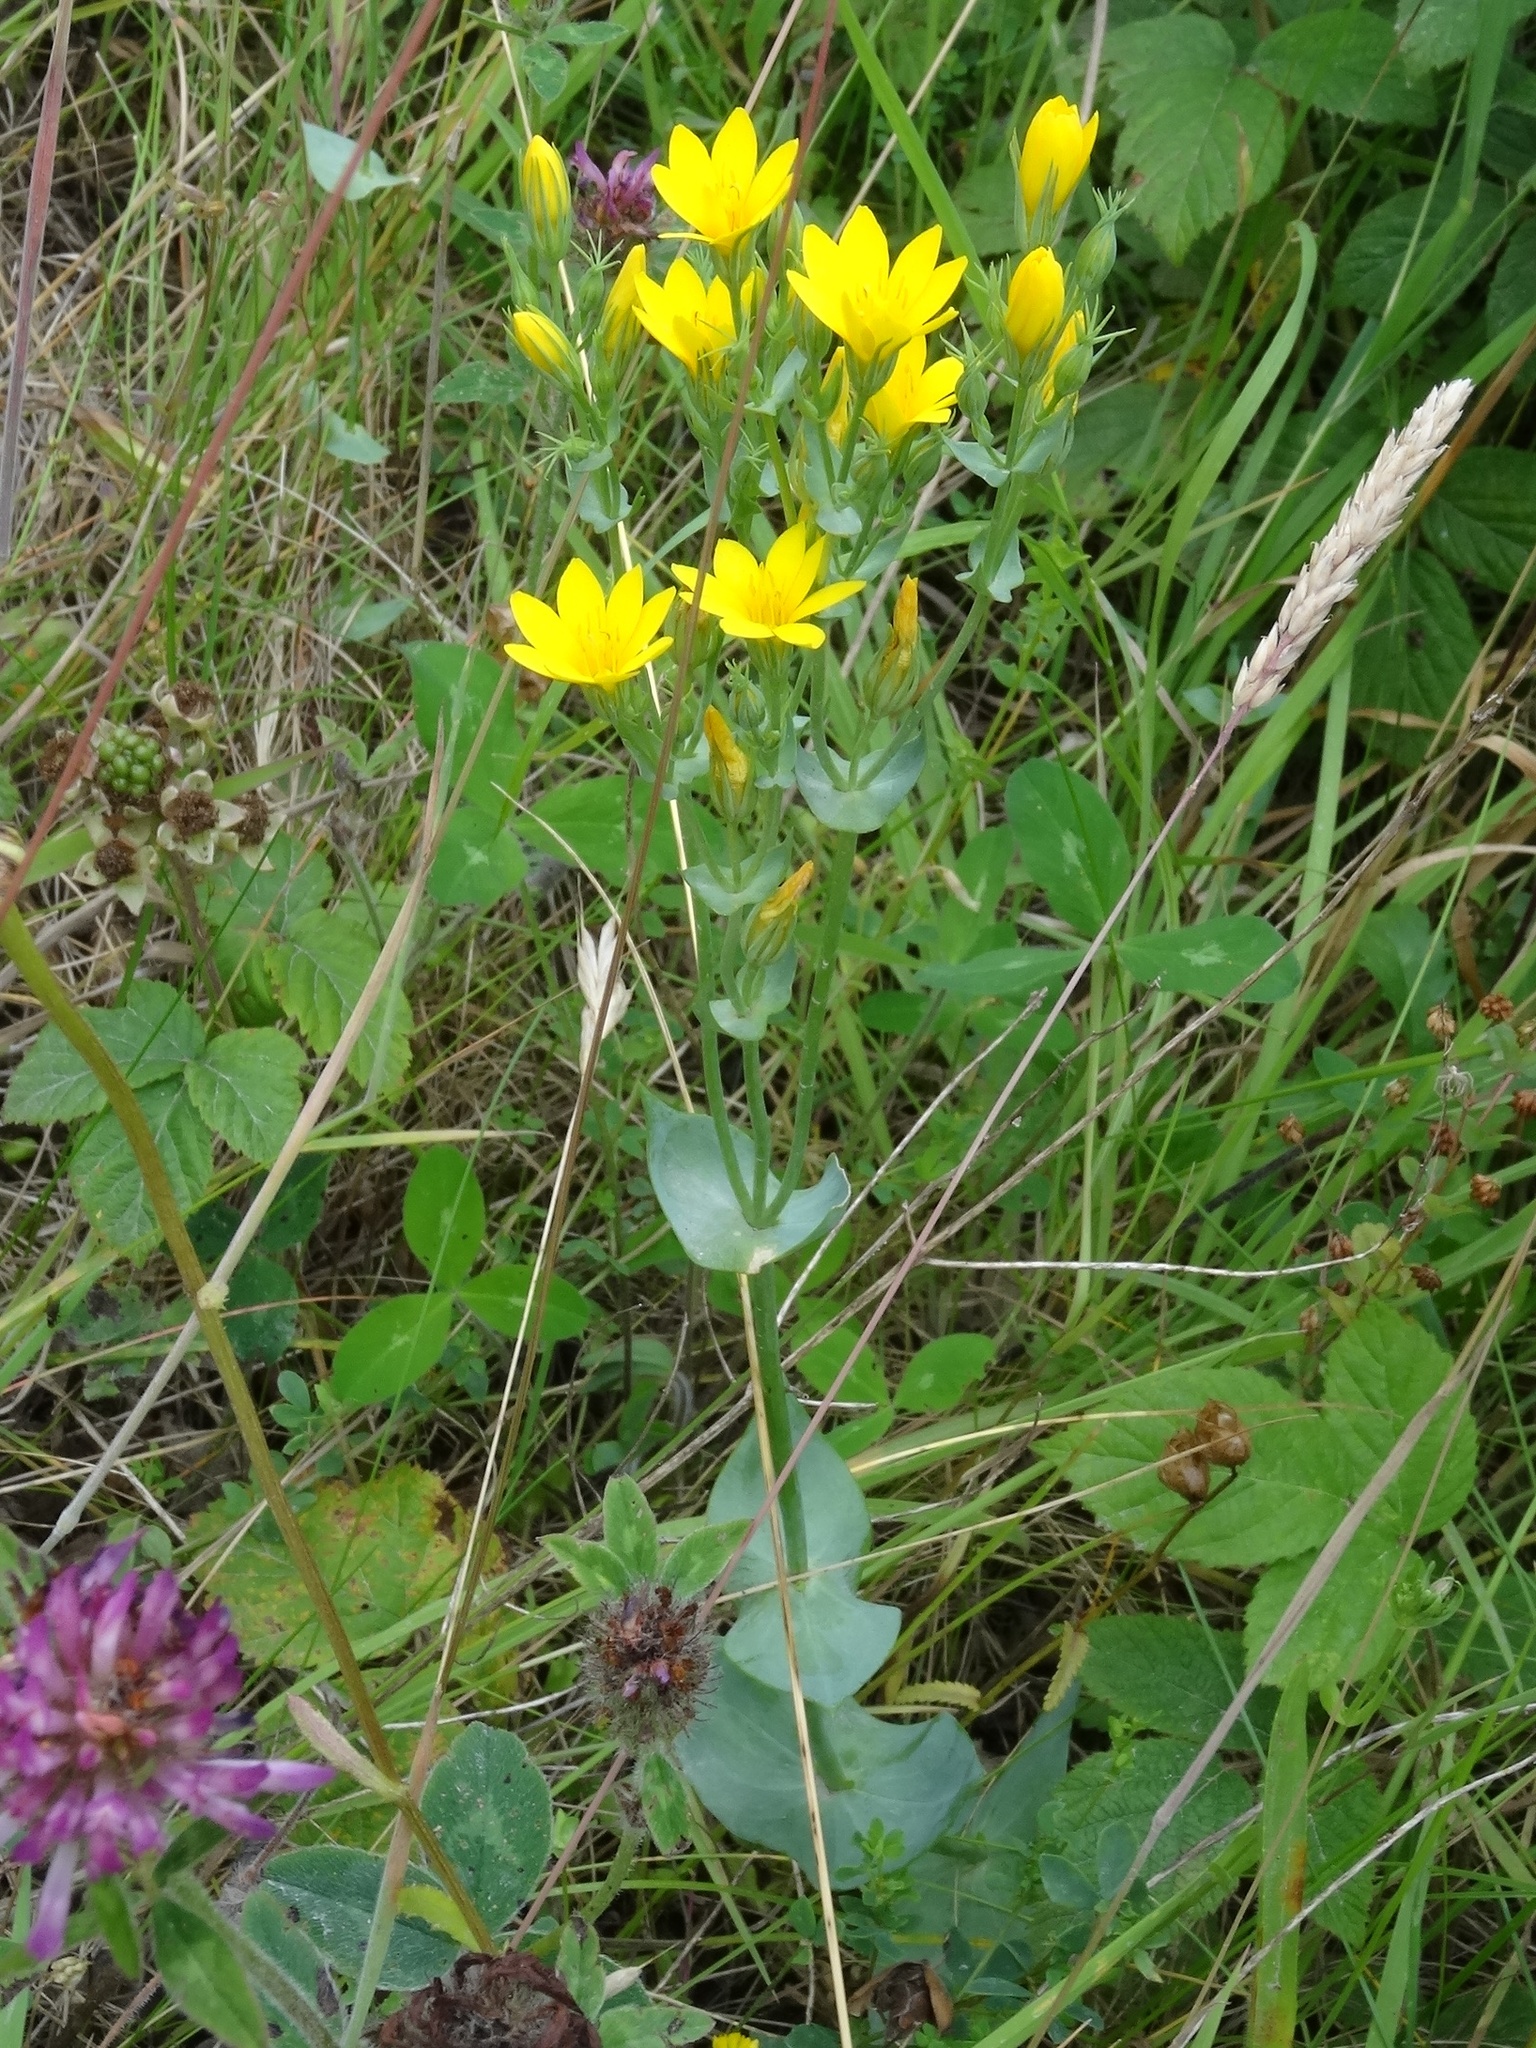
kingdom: Plantae
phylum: Tracheophyta
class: Magnoliopsida
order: Gentianales
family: Gentianaceae
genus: Blackstonia
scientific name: Blackstonia perfoliata
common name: Yellow-wort
